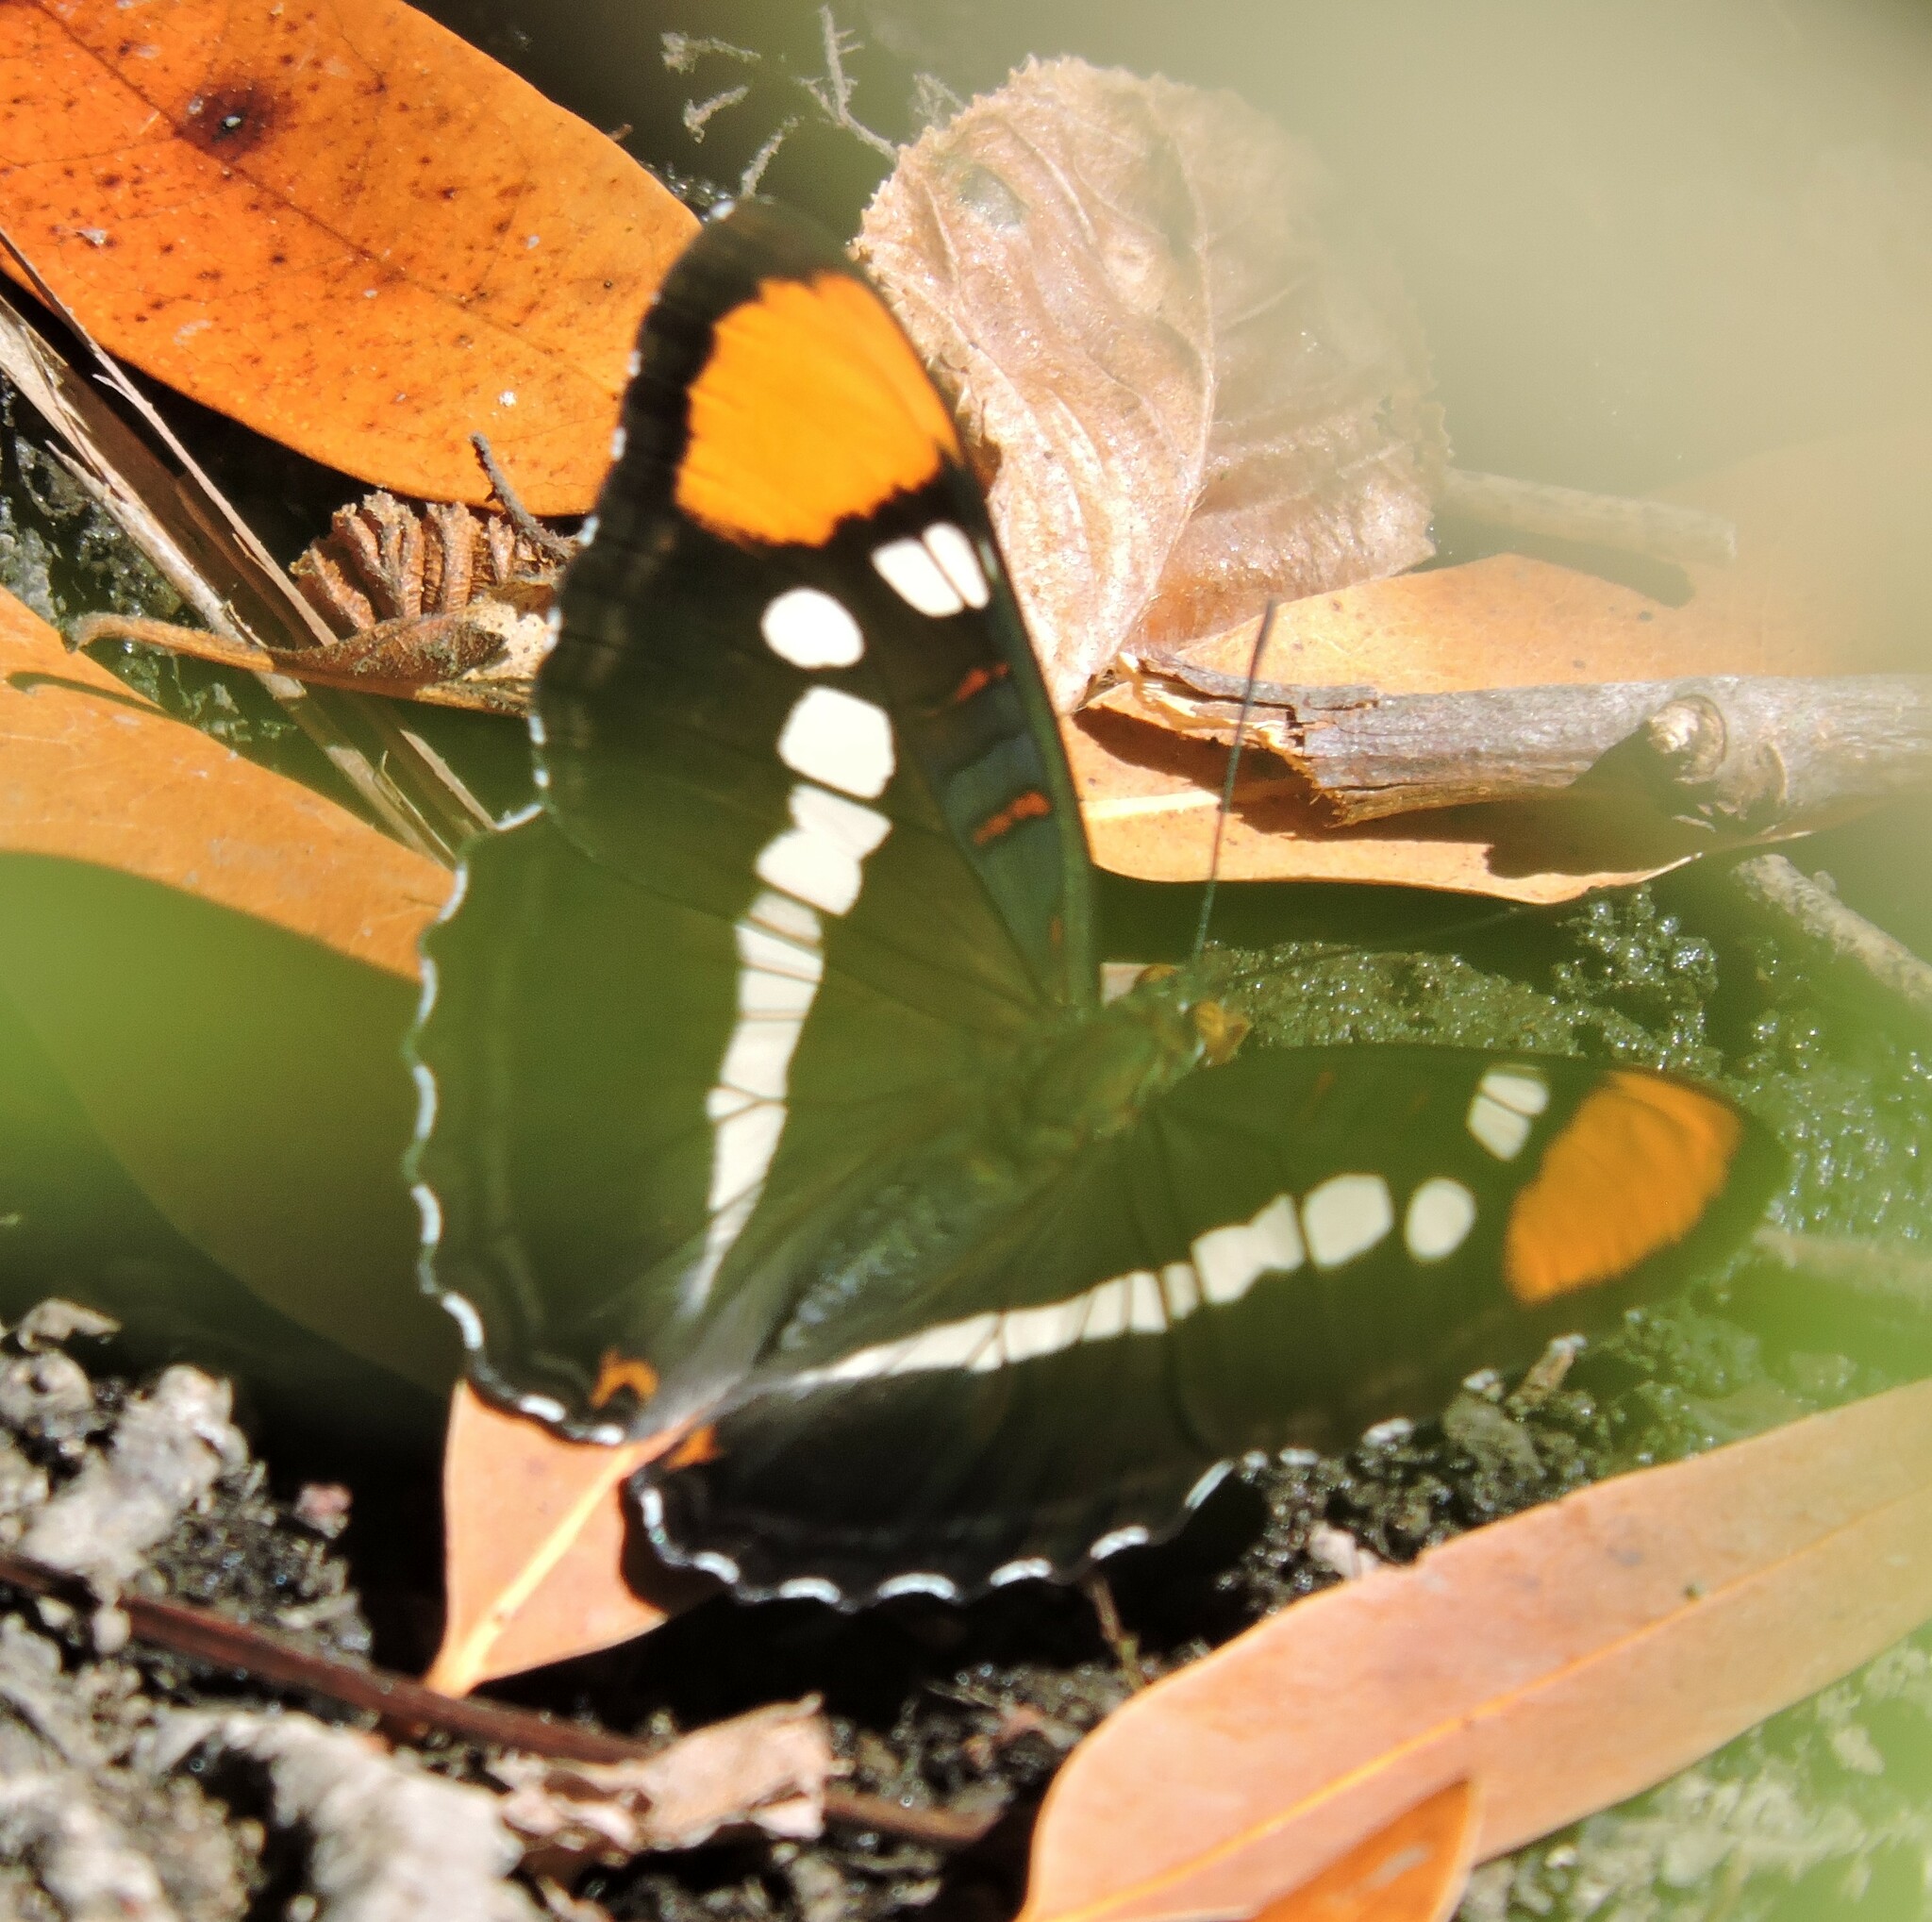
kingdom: Animalia
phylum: Arthropoda
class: Insecta
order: Lepidoptera
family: Nymphalidae
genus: Limenitis
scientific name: Limenitis bredowii
